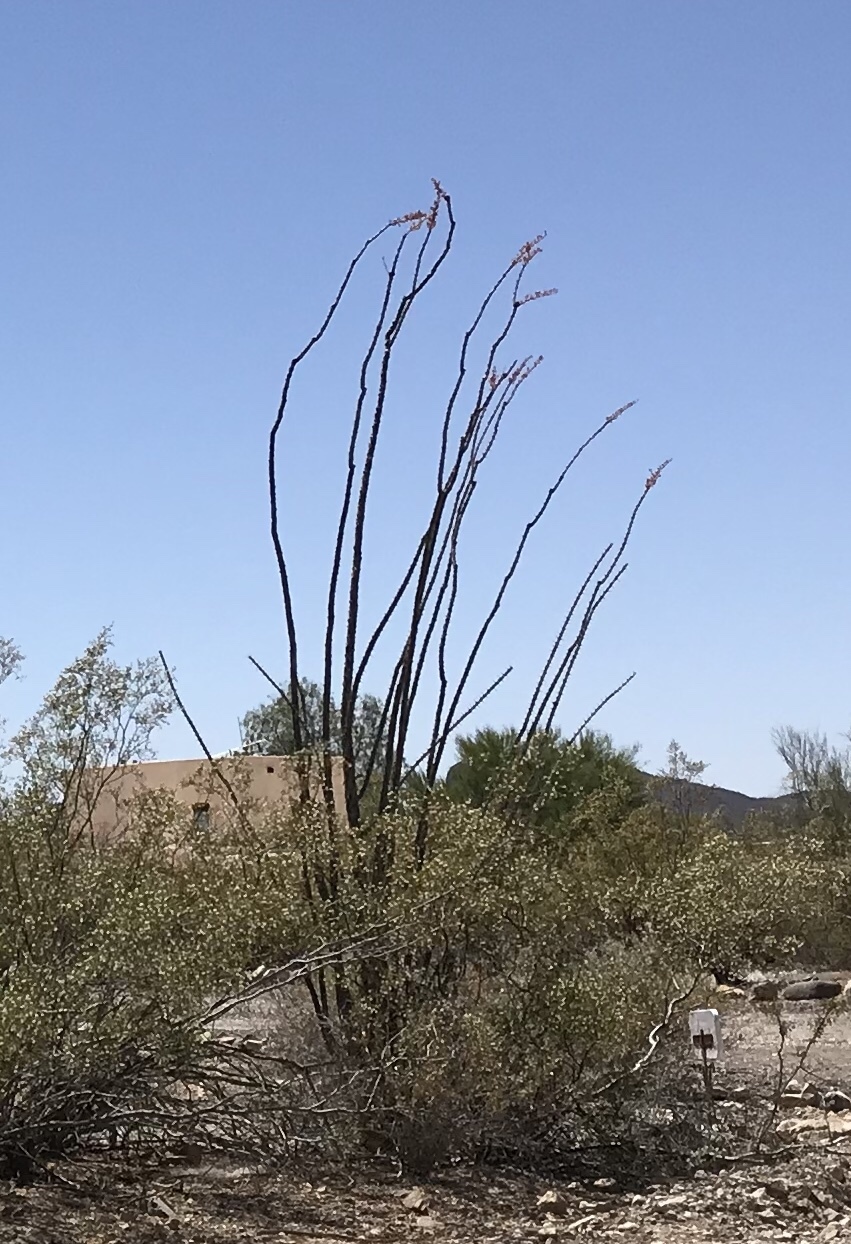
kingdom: Plantae
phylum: Tracheophyta
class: Magnoliopsida
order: Ericales
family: Fouquieriaceae
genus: Fouquieria
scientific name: Fouquieria splendens
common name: Vine-cactus
